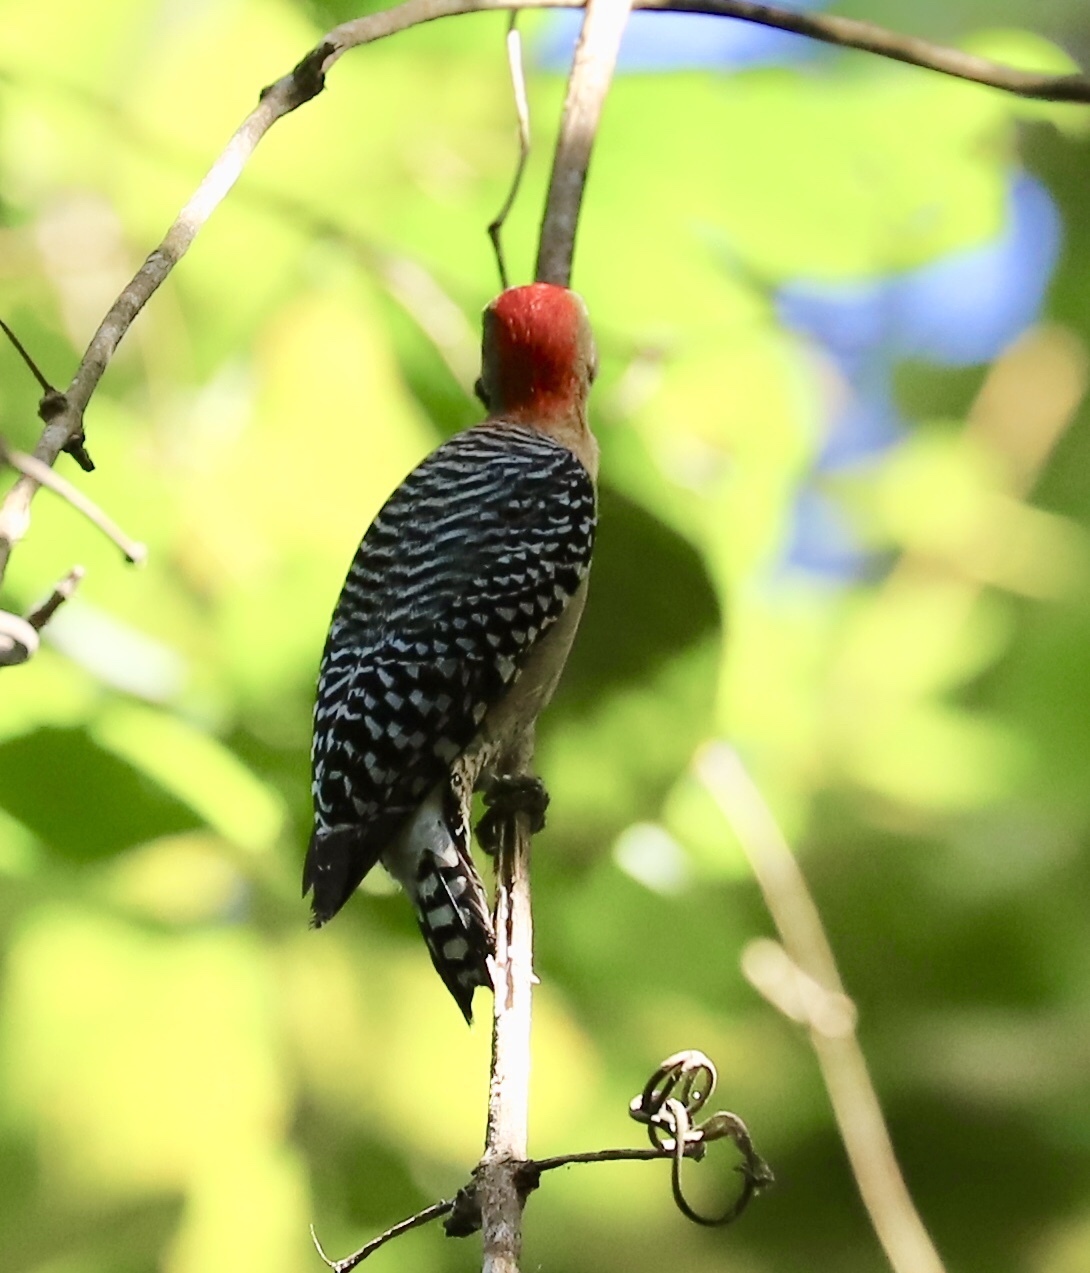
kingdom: Animalia
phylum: Chordata
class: Aves
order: Piciformes
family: Picidae
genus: Melanerpes
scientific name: Melanerpes rubricapillus
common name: Red-crowned woodpecker
